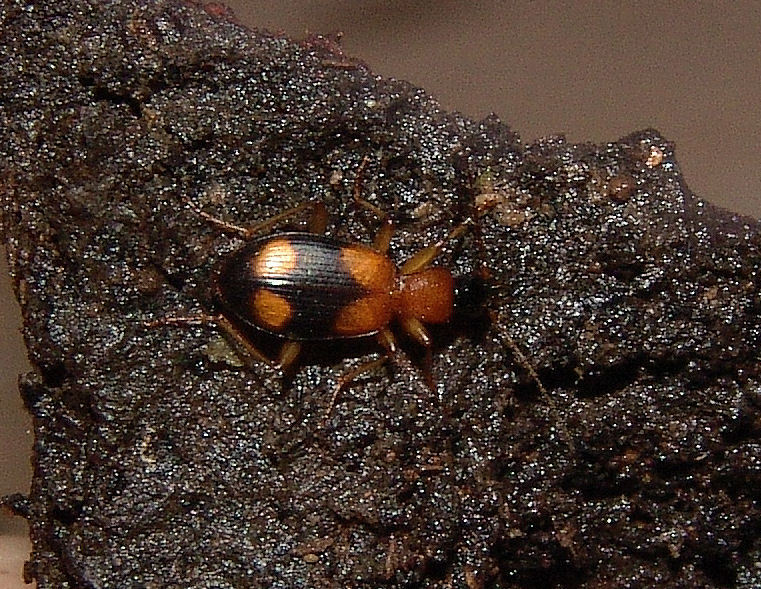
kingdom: Animalia
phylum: Arthropoda
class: Insecta
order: Coleoptera
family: Carabidae
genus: Agonum
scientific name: Agonum quadrimaculatum
